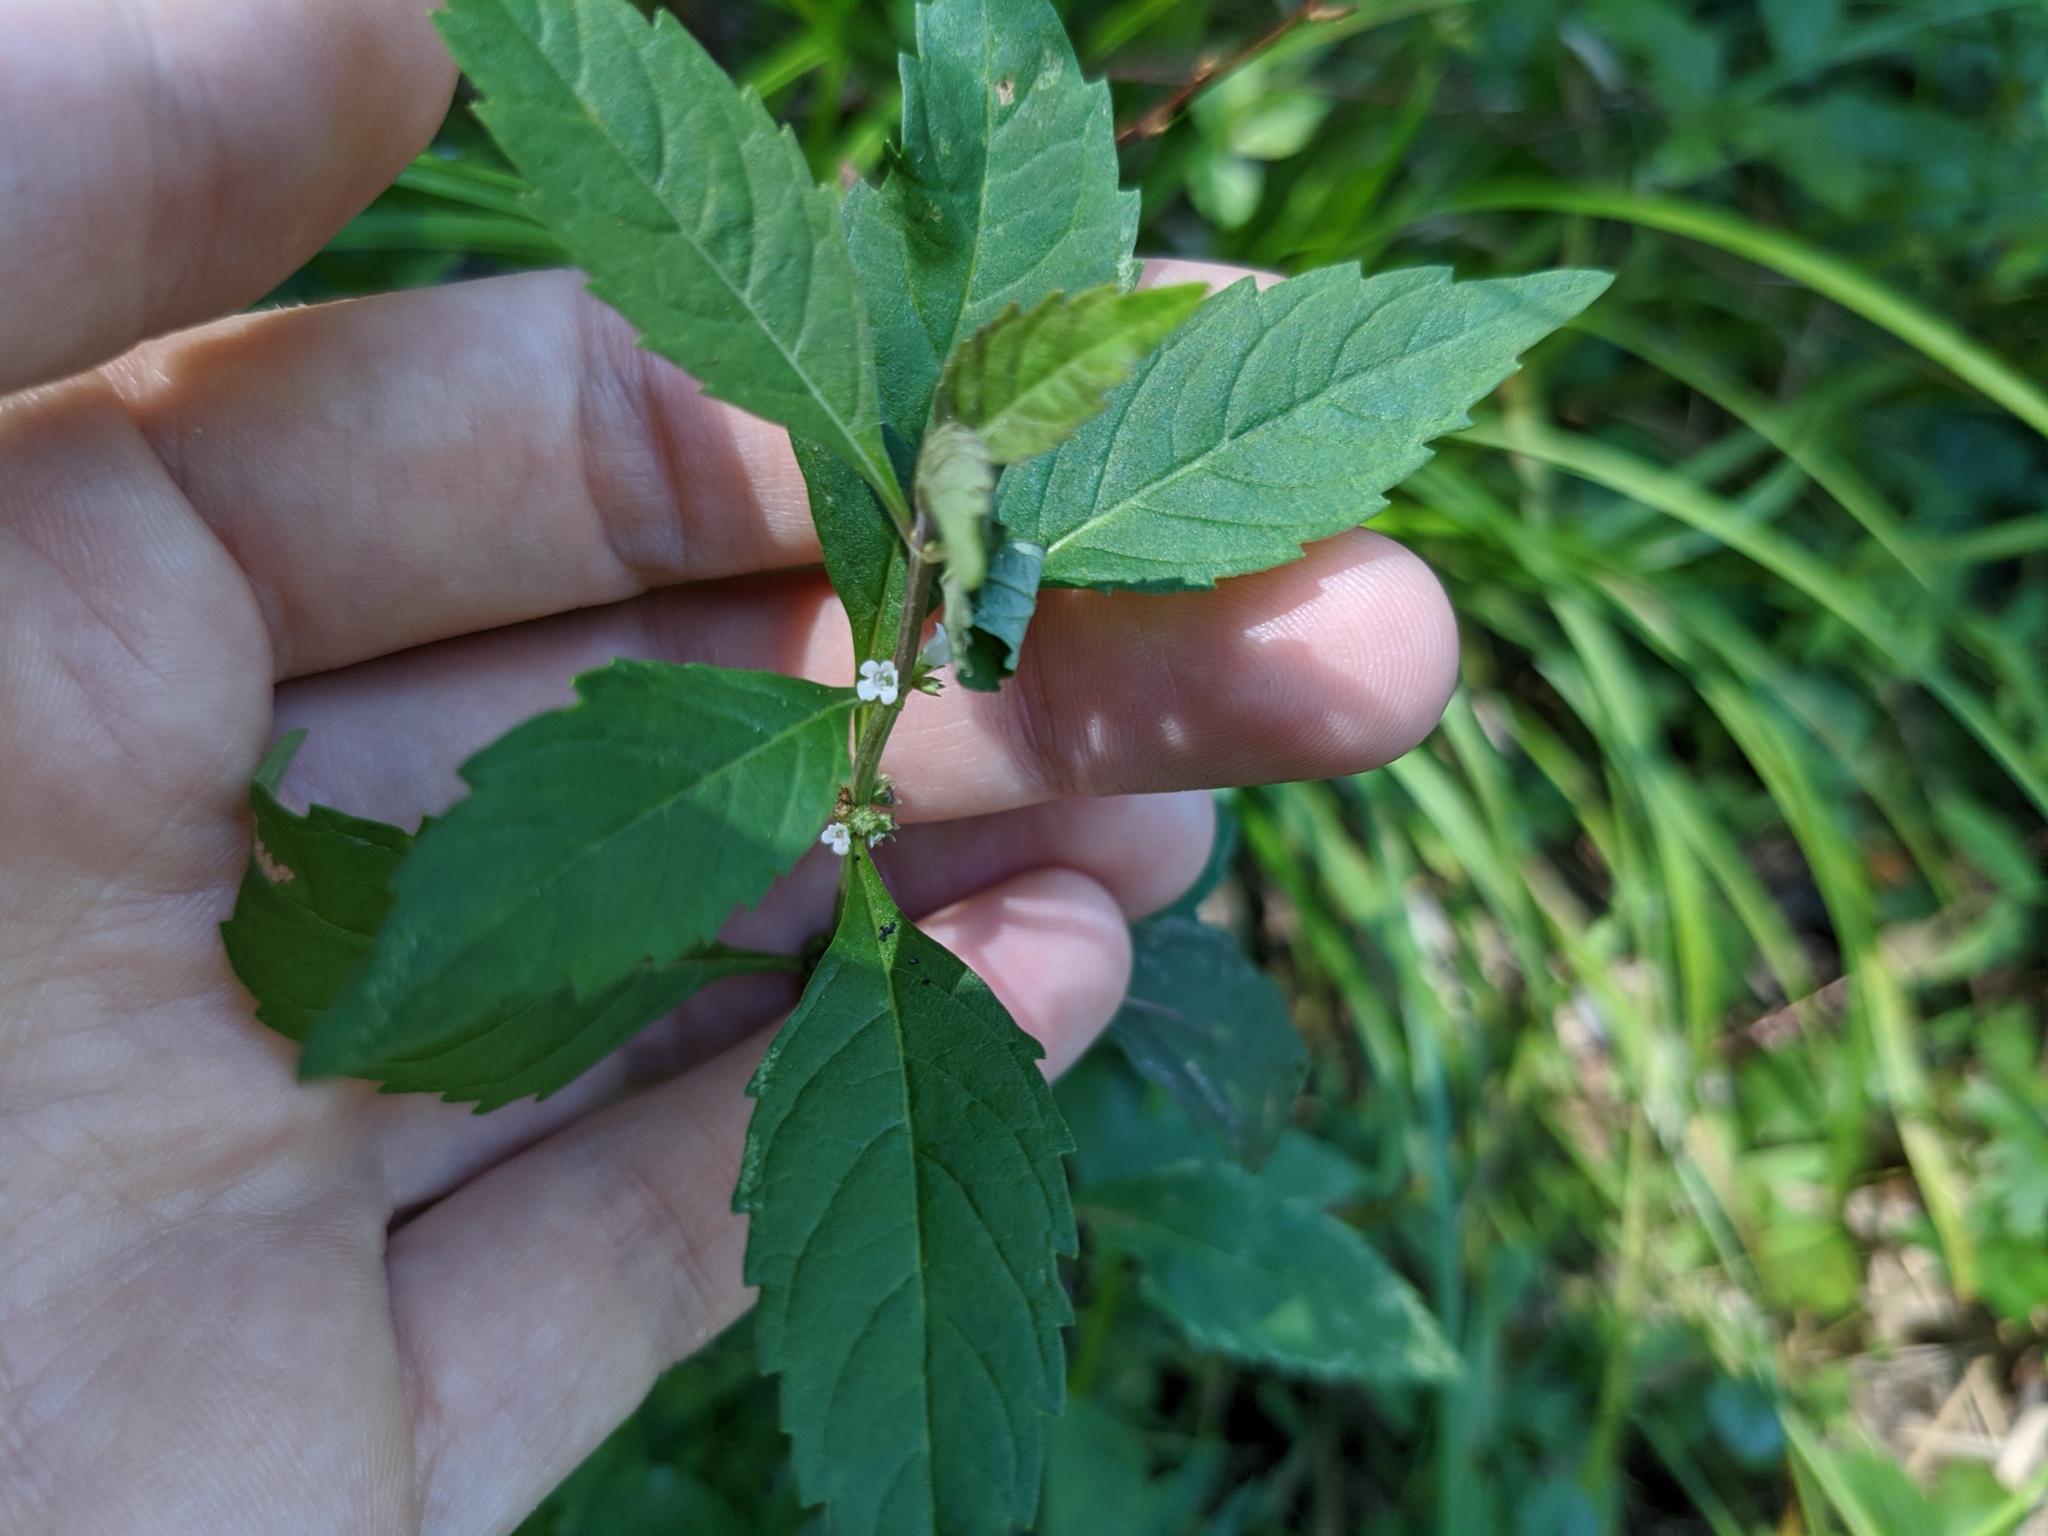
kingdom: Plantae
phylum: Tracheophyta
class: Magnoliopsida
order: Lamiales
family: Lamiaceae
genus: Lycopus
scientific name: Lycopus uniflorus
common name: Northern bugleweed
